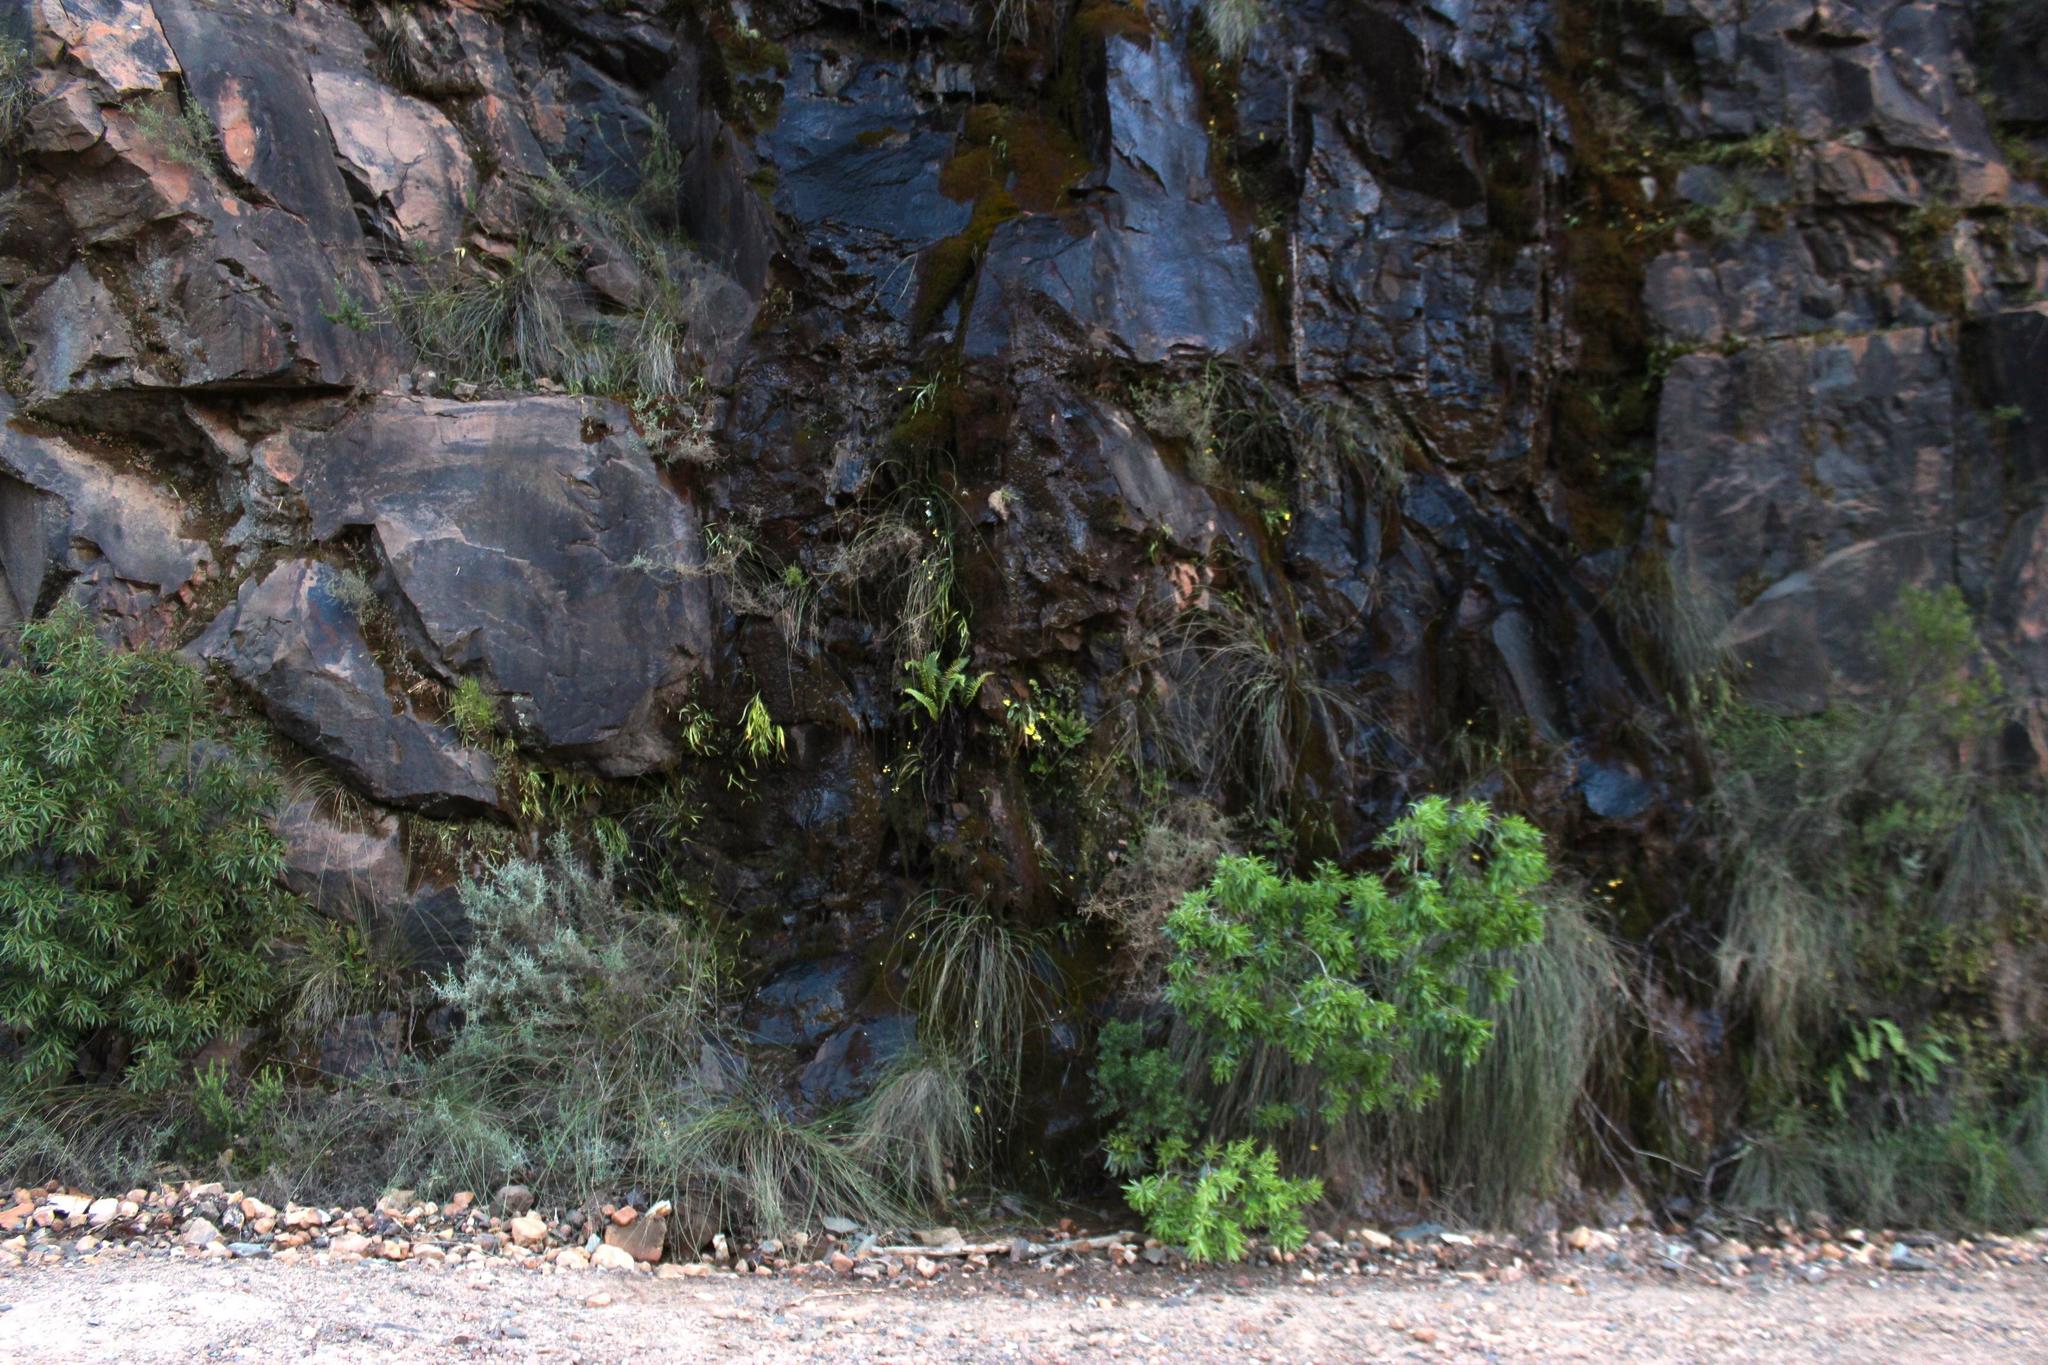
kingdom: Plantae
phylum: Tracheophyta
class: Liliopsida
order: Asparagales
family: Iridaceae
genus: Ixia
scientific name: Ixia angelae
